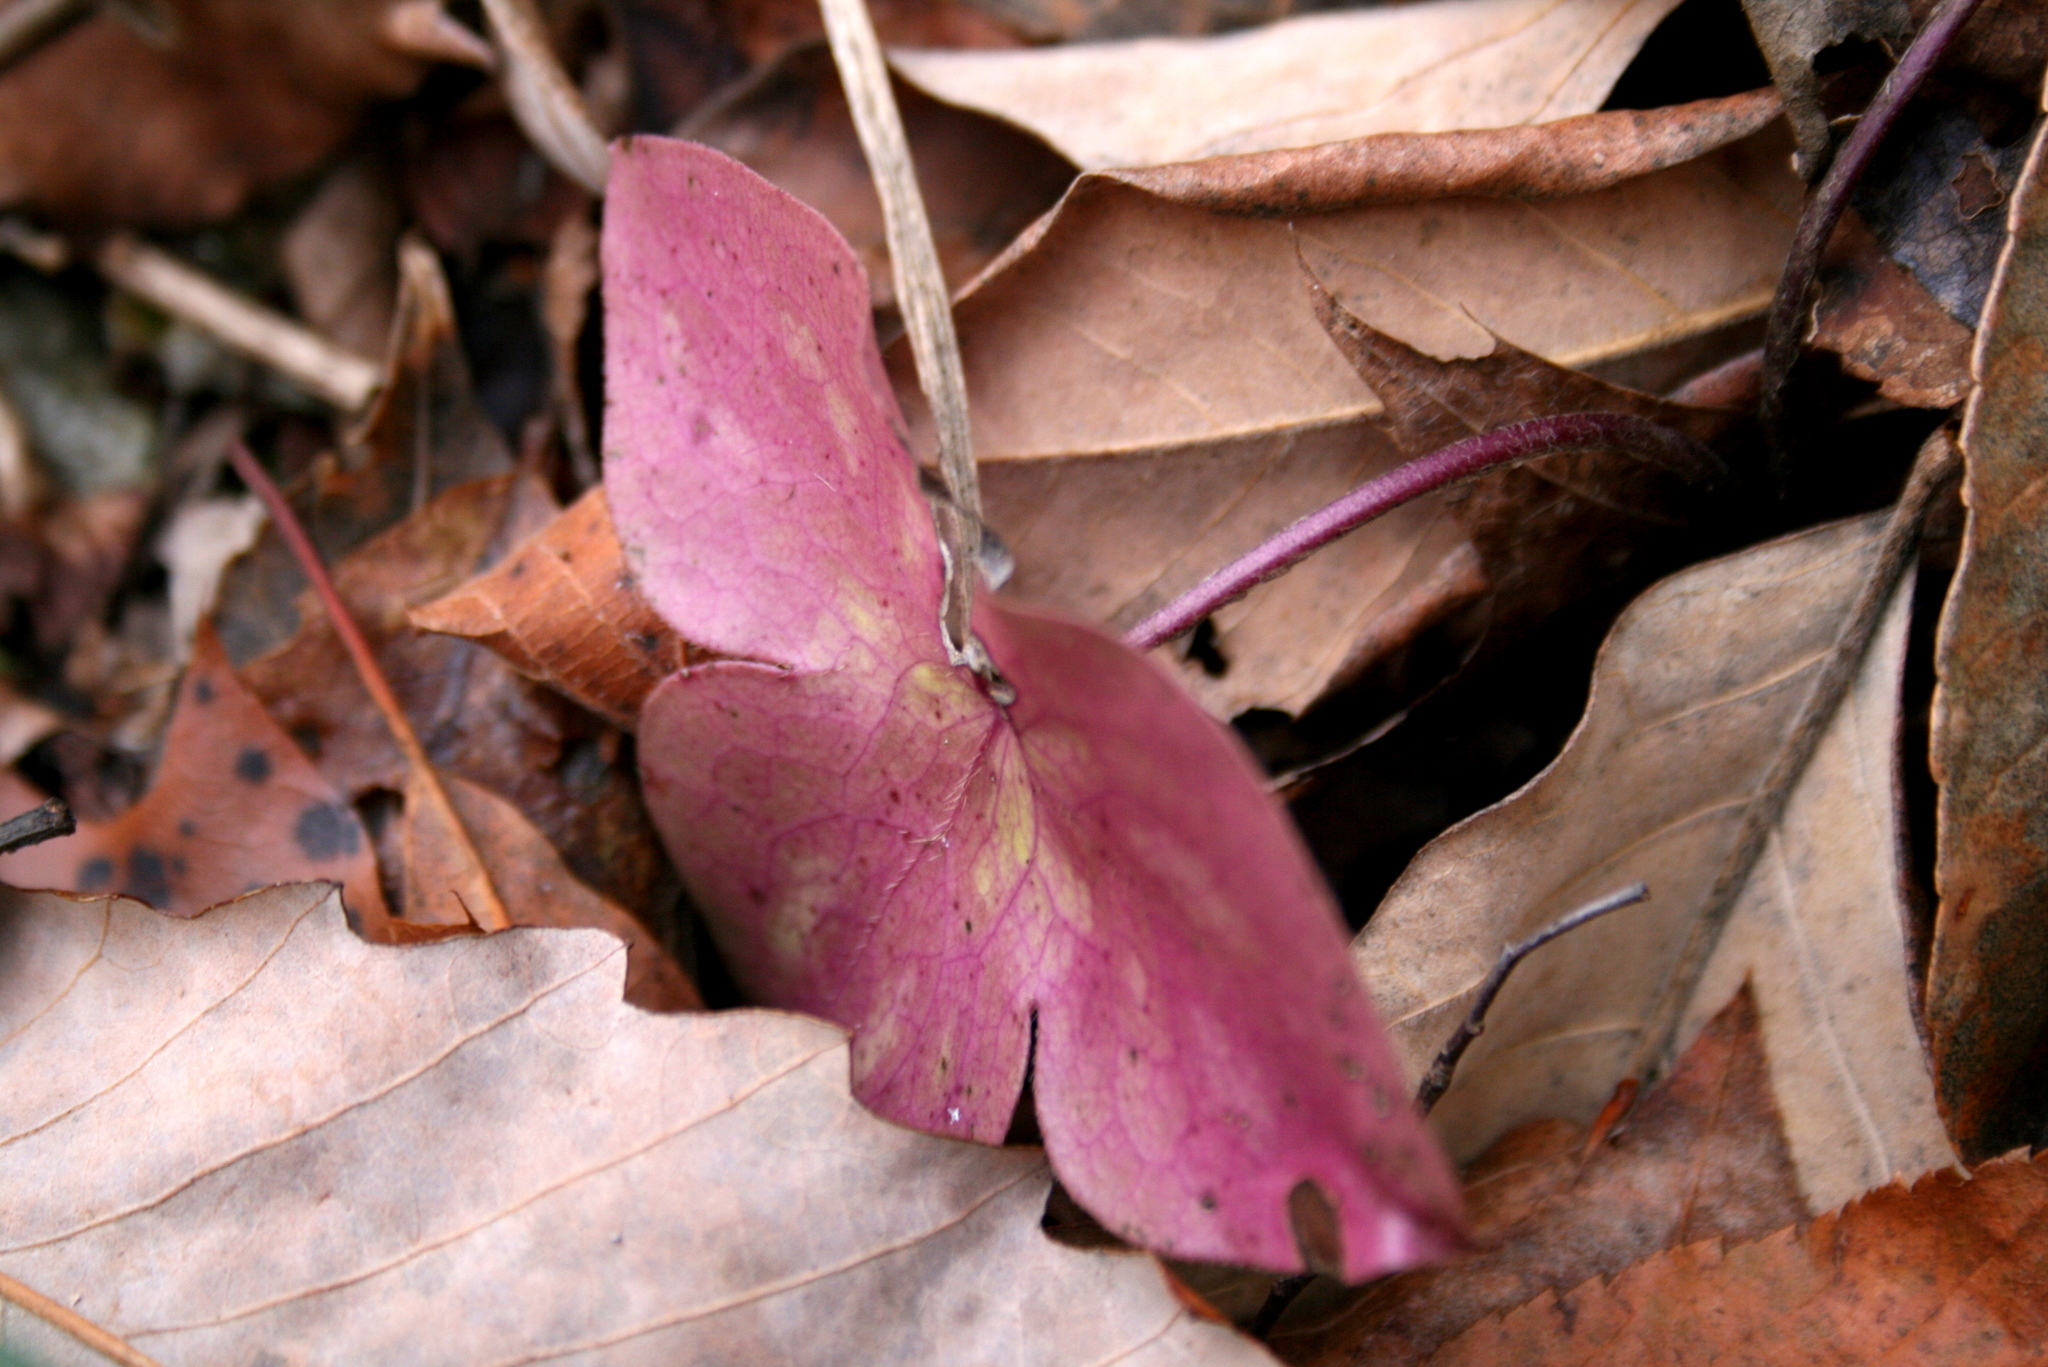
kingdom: Plantae
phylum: Tracheophyta
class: Magnoliopsida
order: Ranunculales
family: Ranunculaceae
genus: Hepatica
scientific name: Hepatica acutiloba
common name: Sharp-lobed hepatica
